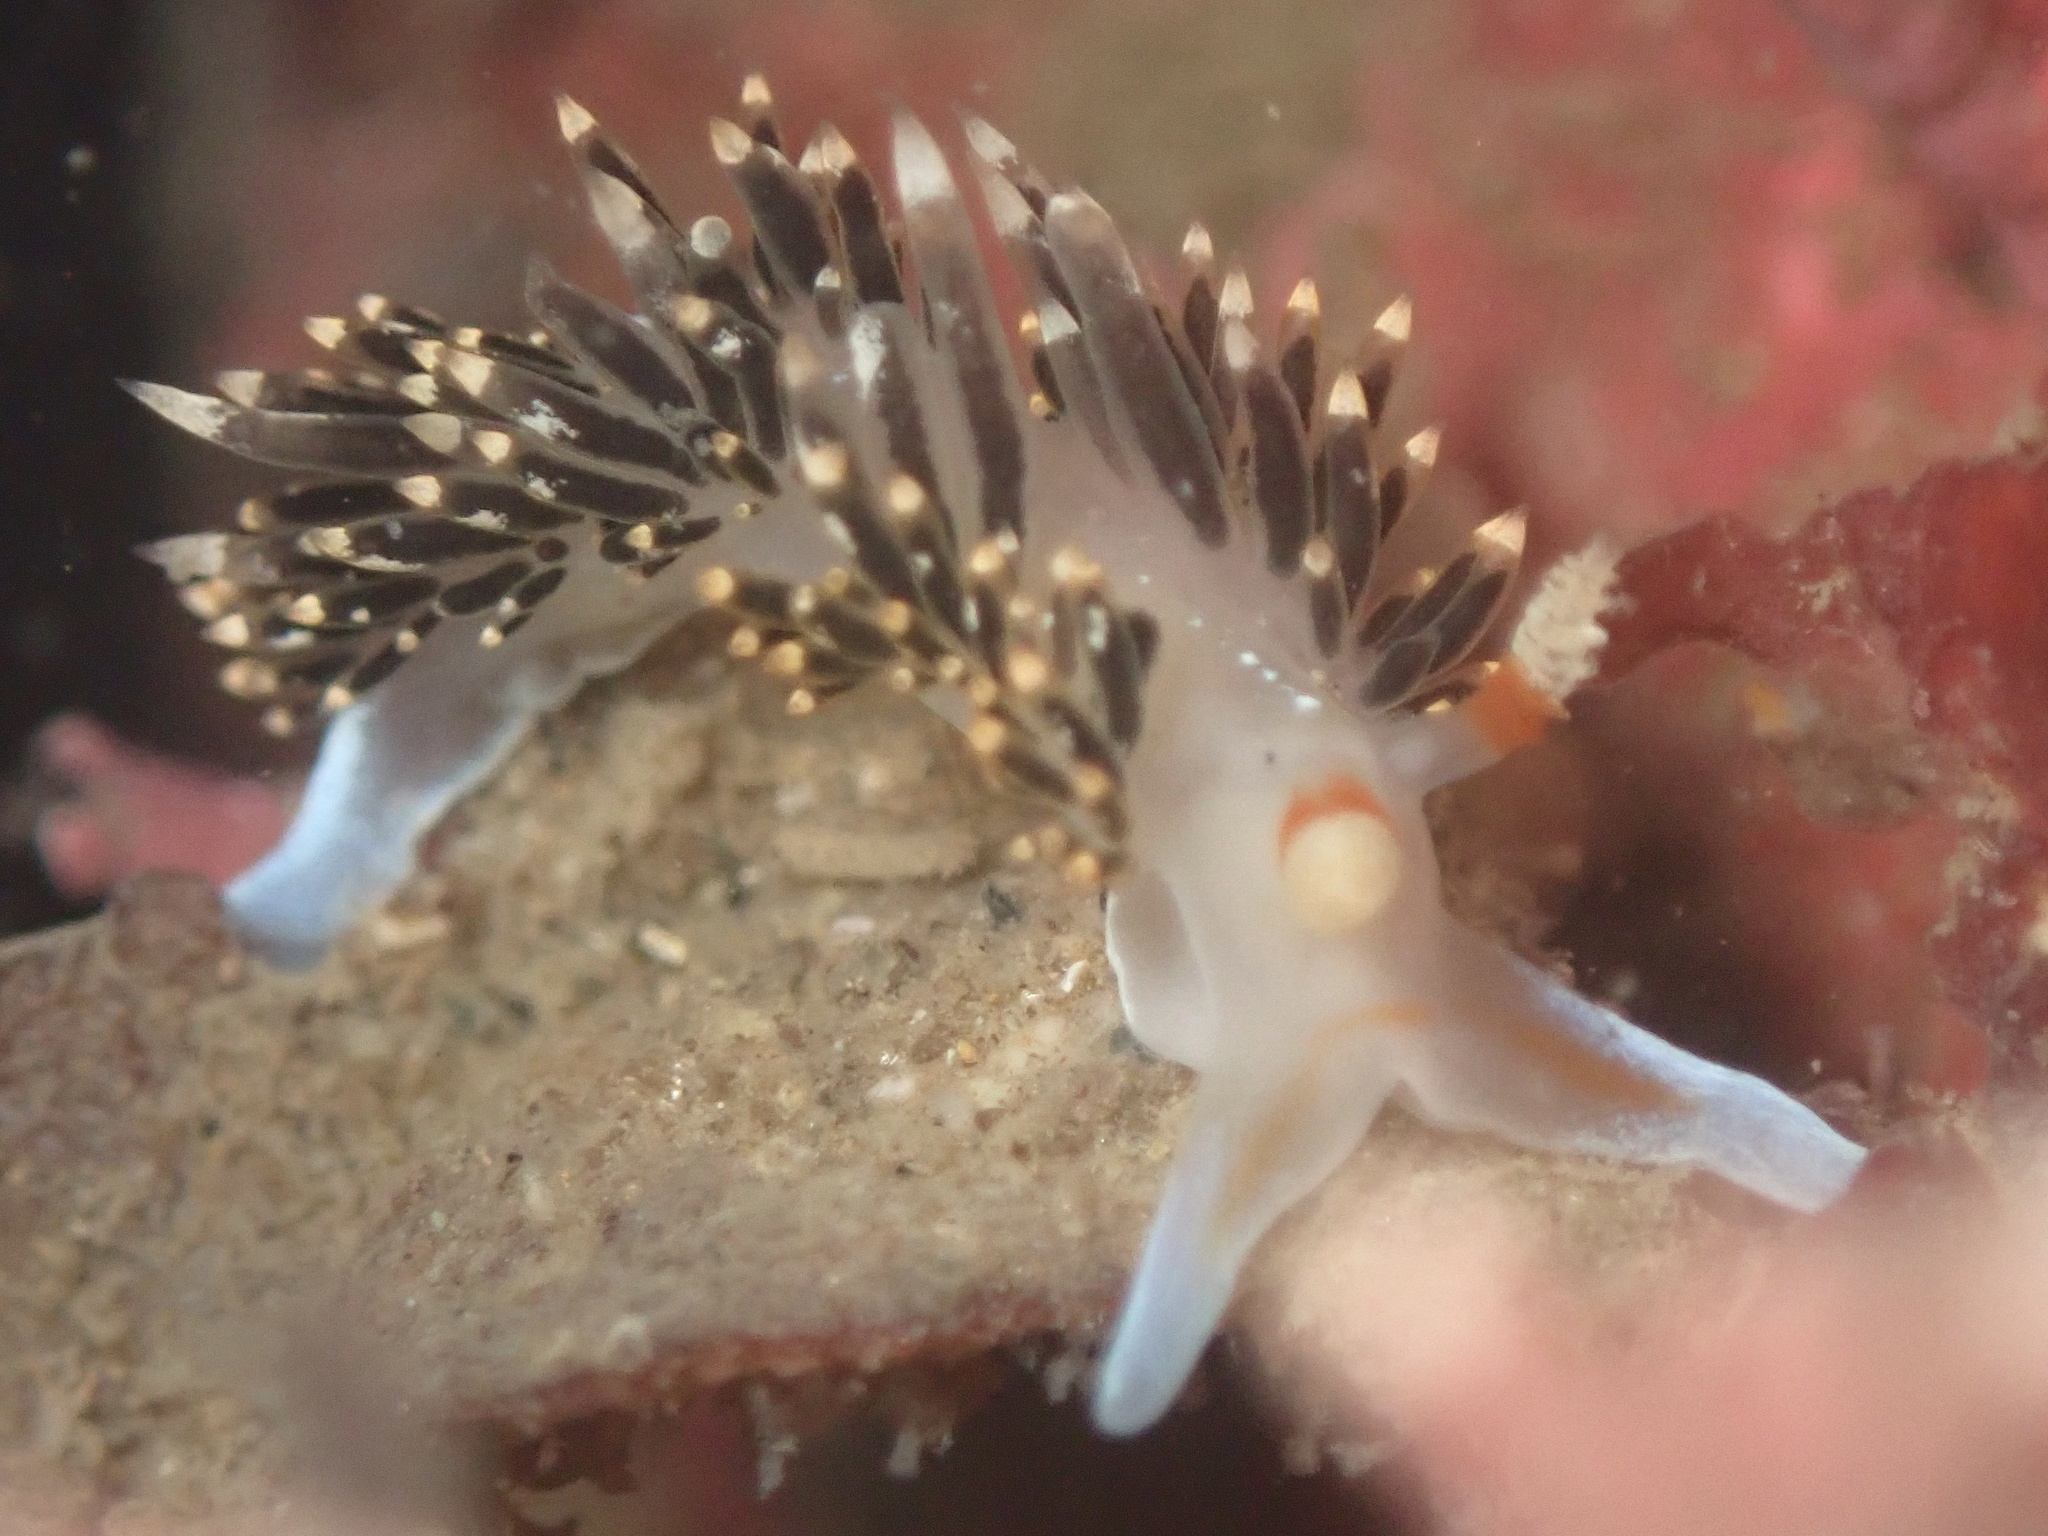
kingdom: Animalia
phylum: Mollusca
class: Gastropoda
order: Nudibranchia
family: Facelinidae
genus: Phidiana
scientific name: Phidiana hiltoni
